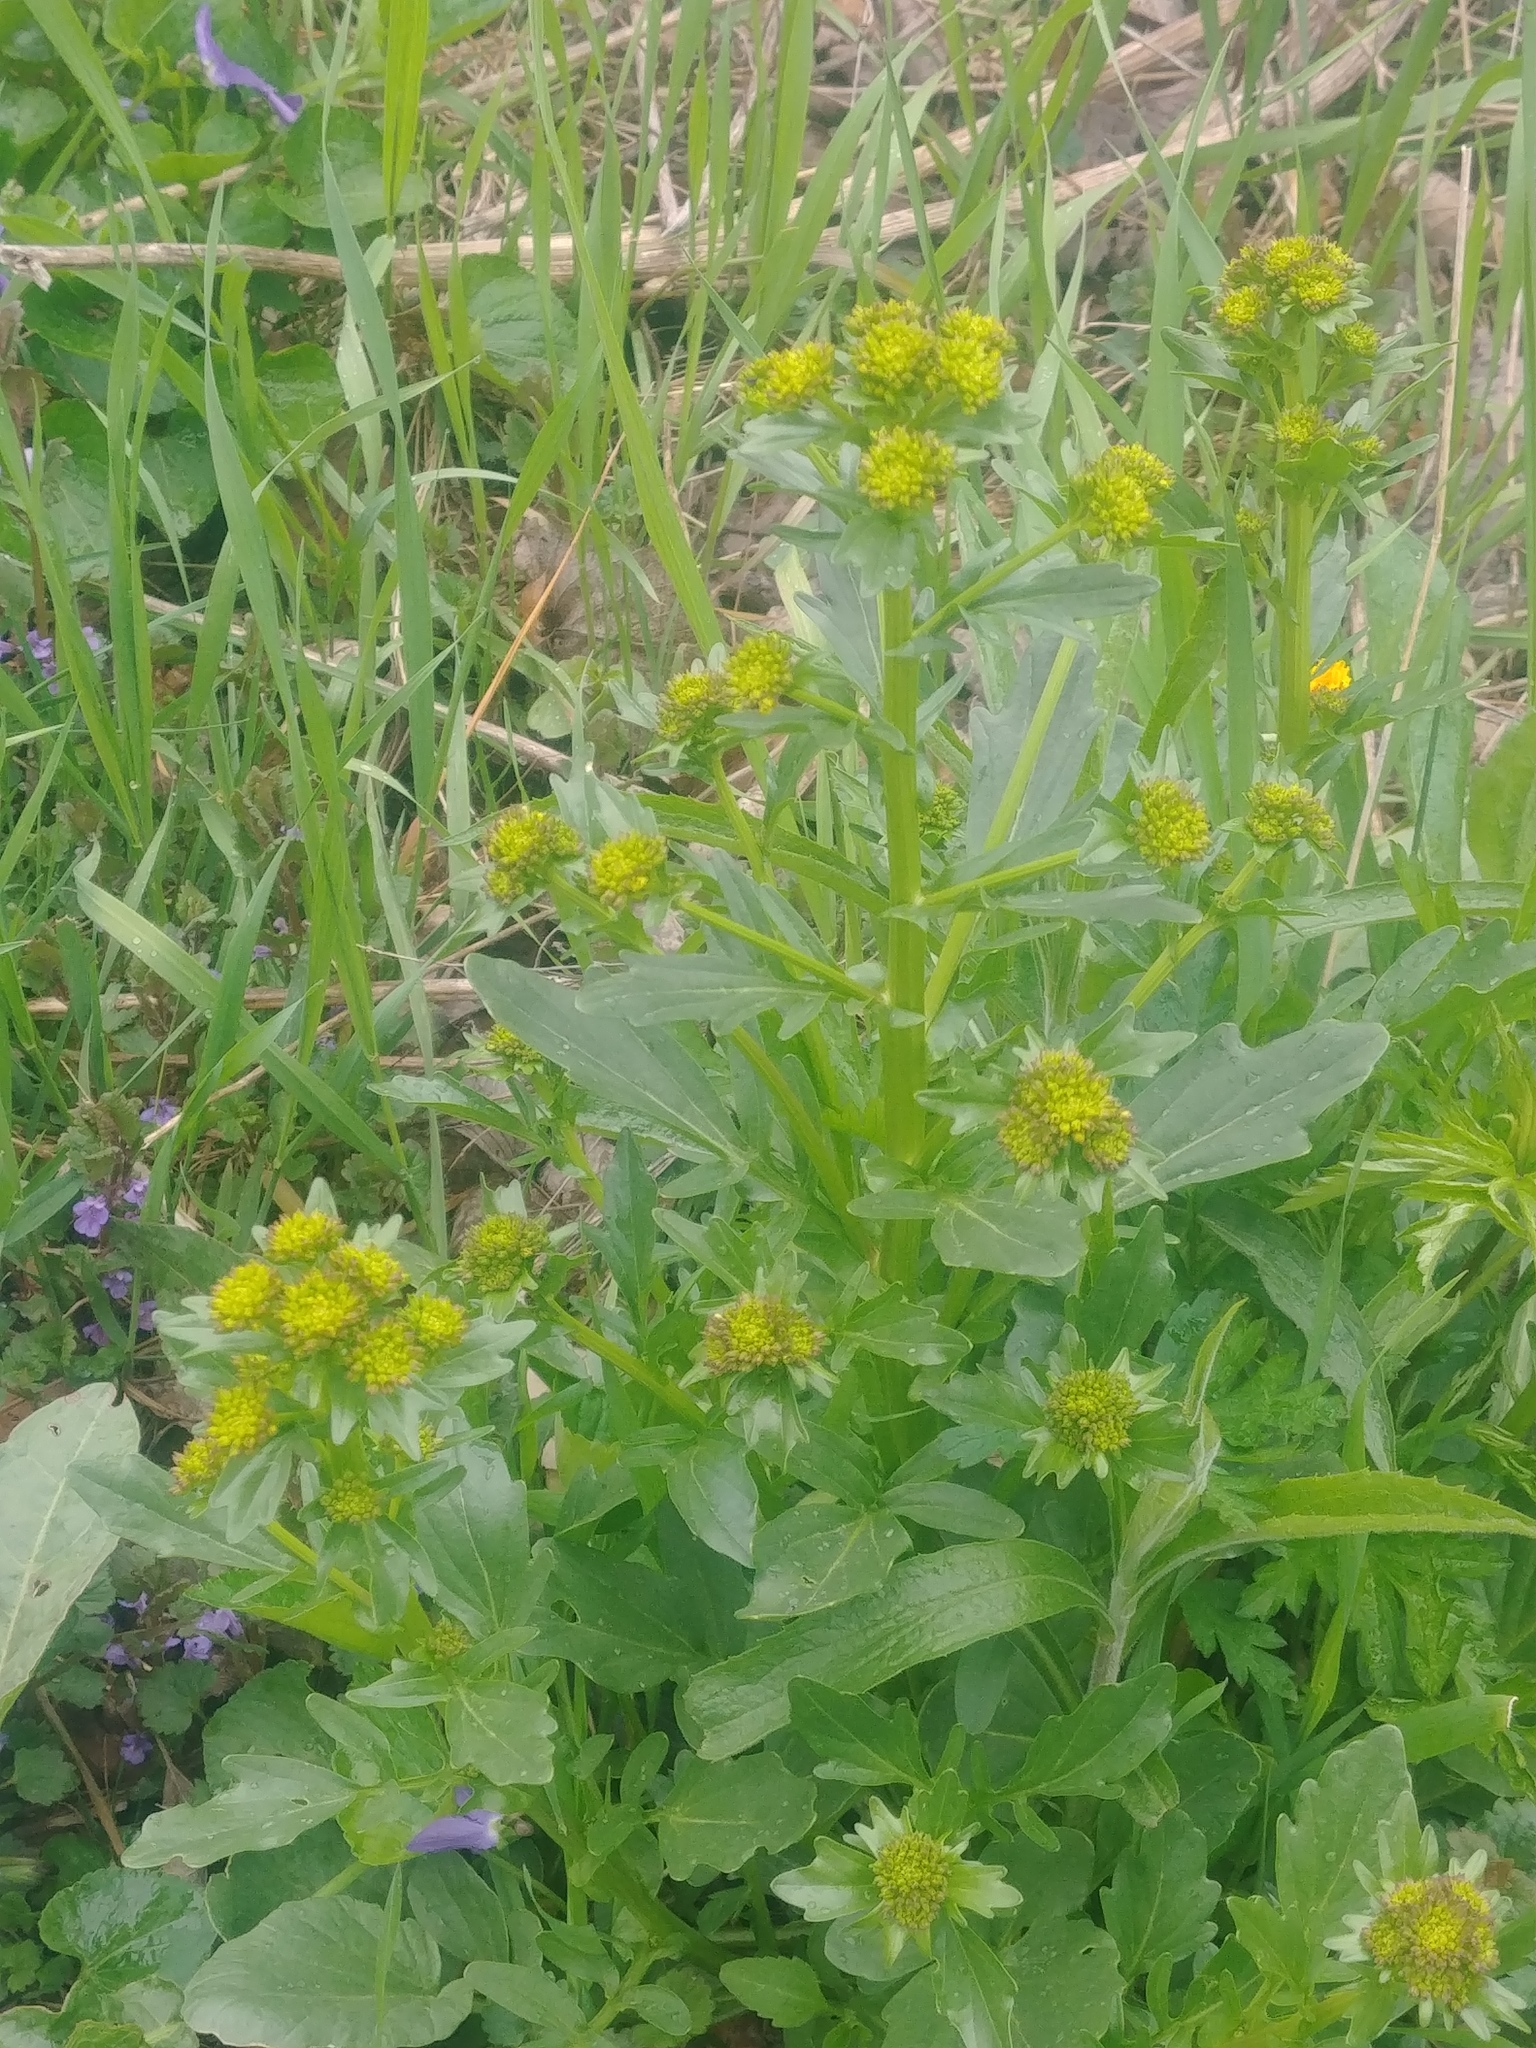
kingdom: Plantae
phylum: Tracheophyta
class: Magnoliopsida
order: Brassicales
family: Brassicaceae
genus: Barbarea
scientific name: Barbarea vulgaris
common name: Cressy-greens
